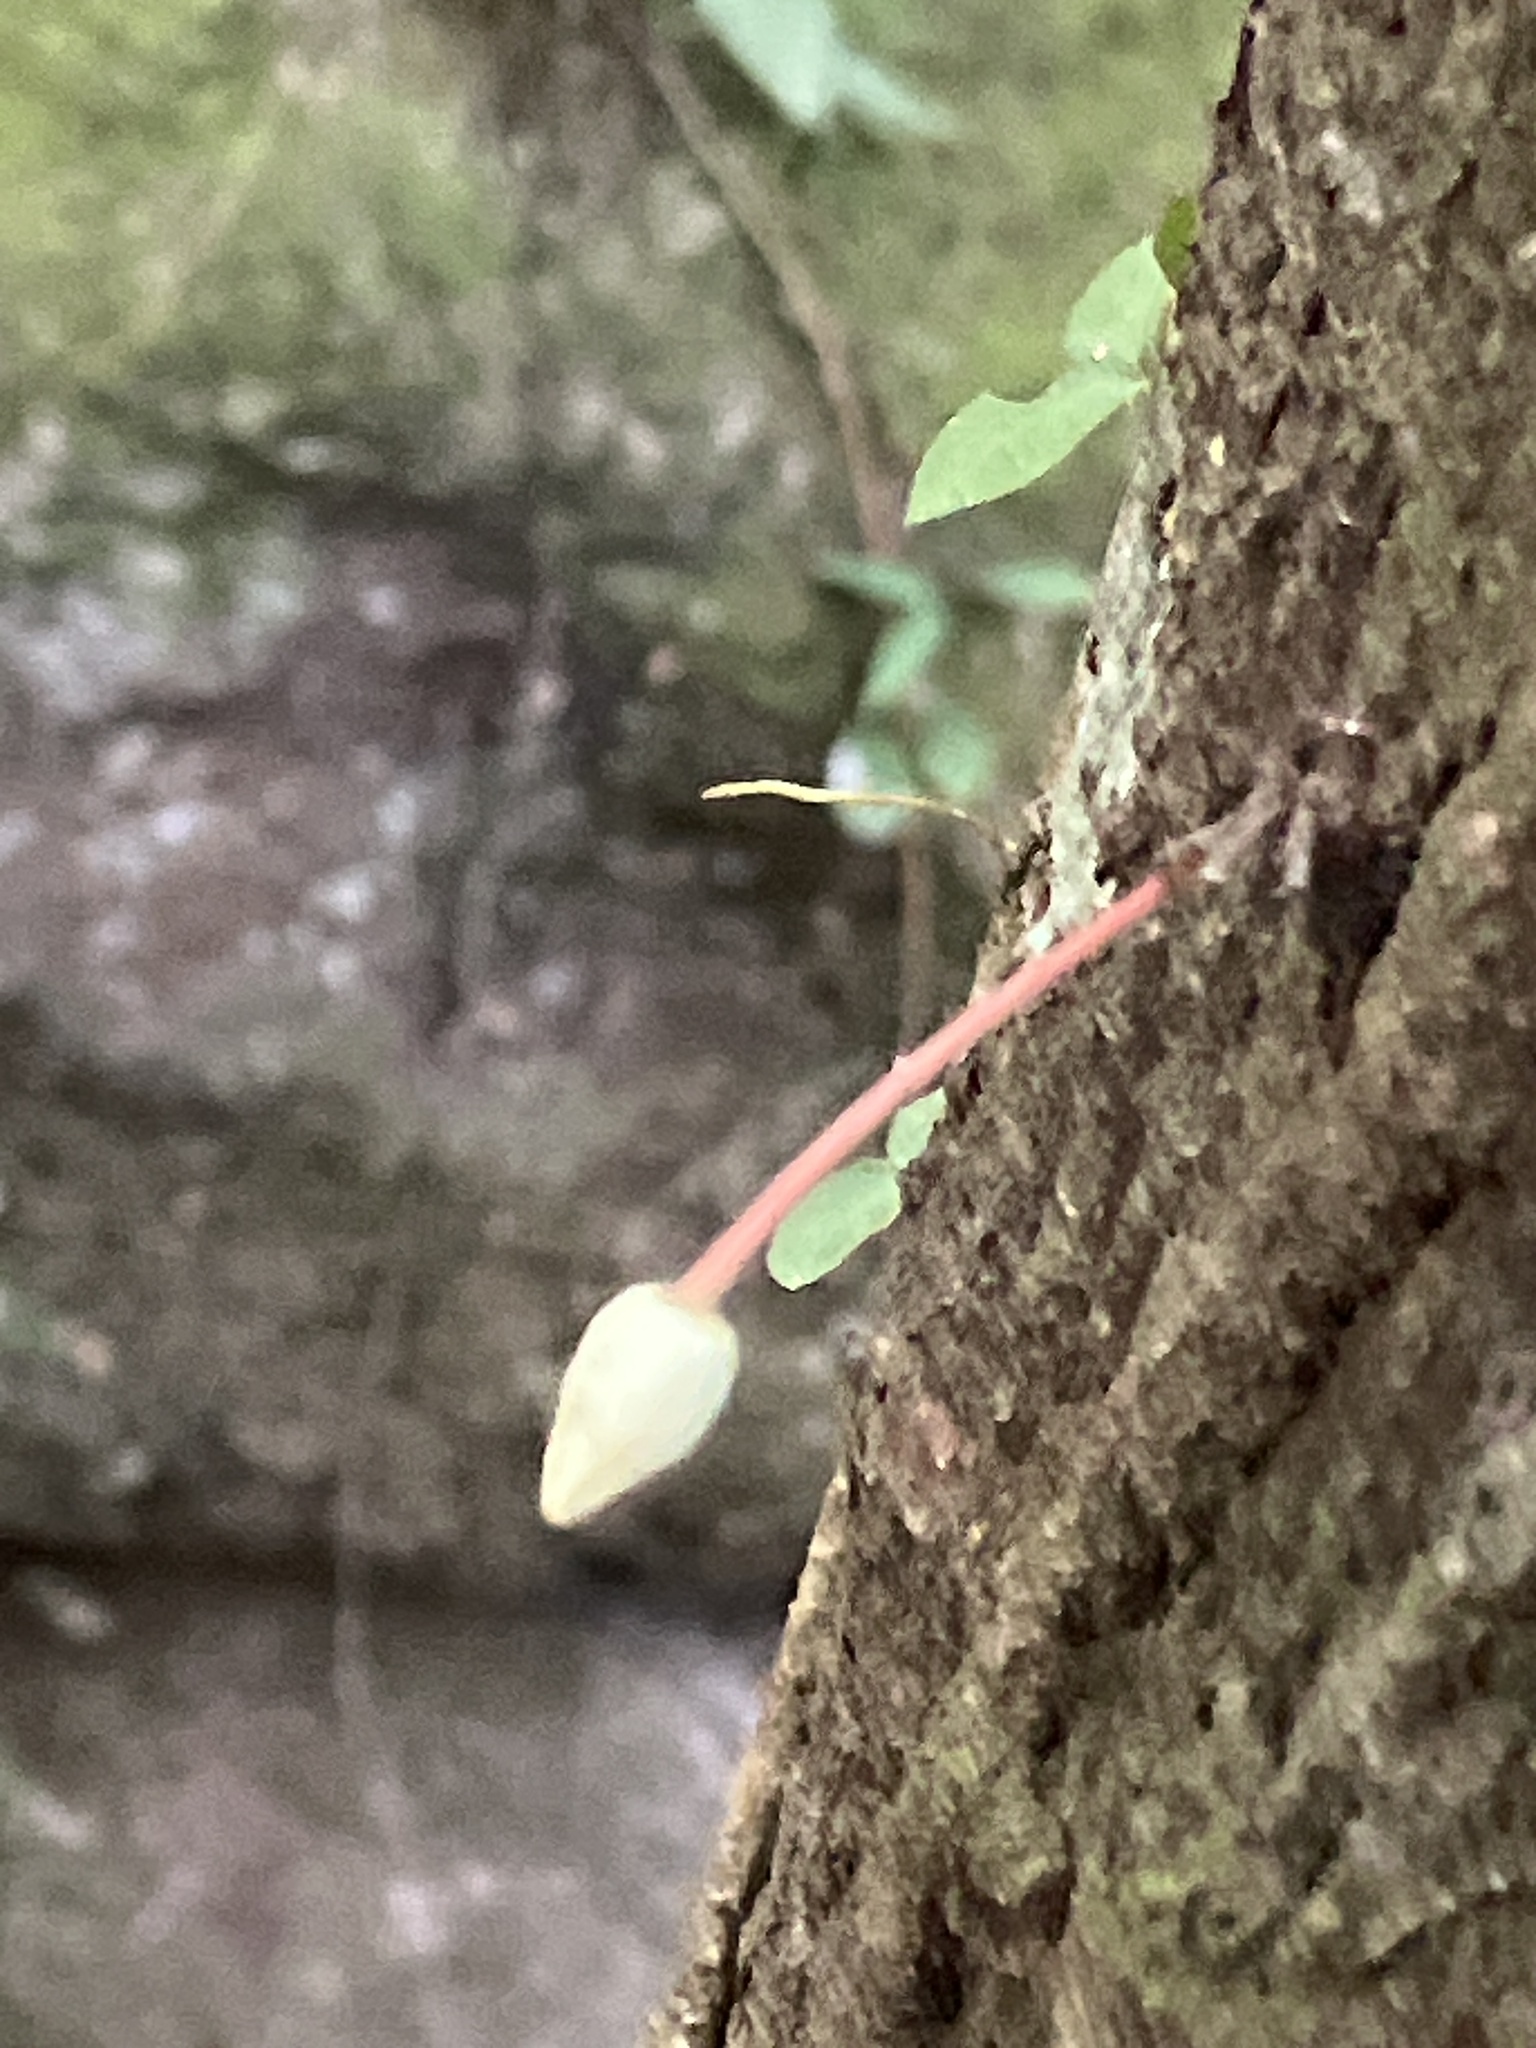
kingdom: Plantae
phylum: Tracheophyta
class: Magnoliopsida
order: Malvales
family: Malvaceae
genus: Theobroma
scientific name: Theobroma cacao
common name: Cocoa
